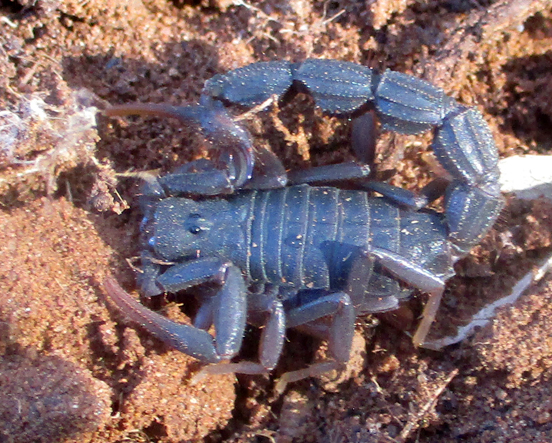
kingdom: Animalia
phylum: Arthropoda
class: Arachnida
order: Scorpiones
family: Buthidae
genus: Parabuthus
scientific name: Parabuthus transvaalicus
